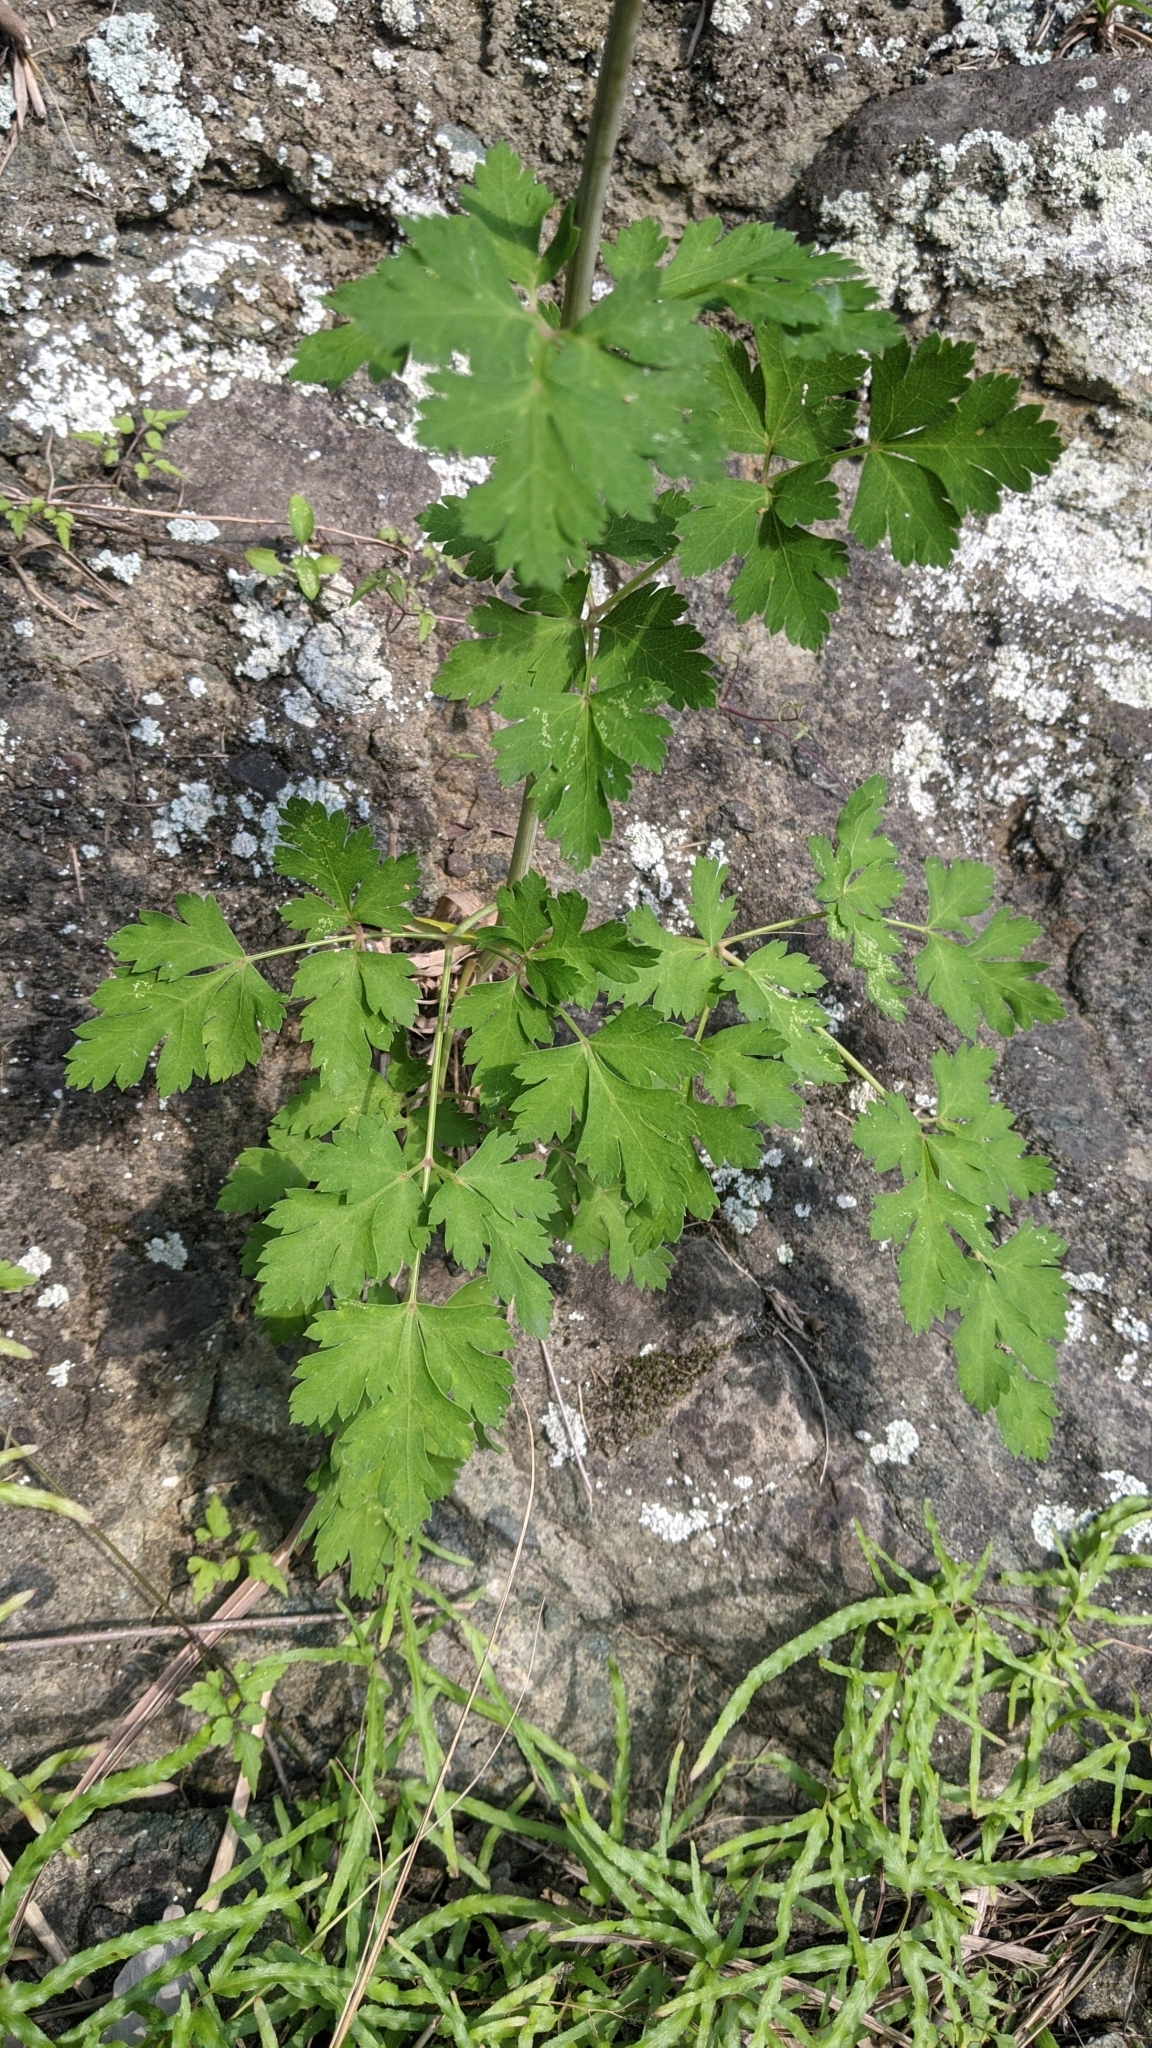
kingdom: Plantae
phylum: Tracheophyta
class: Magnoliopsida
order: Apiales
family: Apiaceae
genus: Kitagawia
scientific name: Kitagawia formosana
